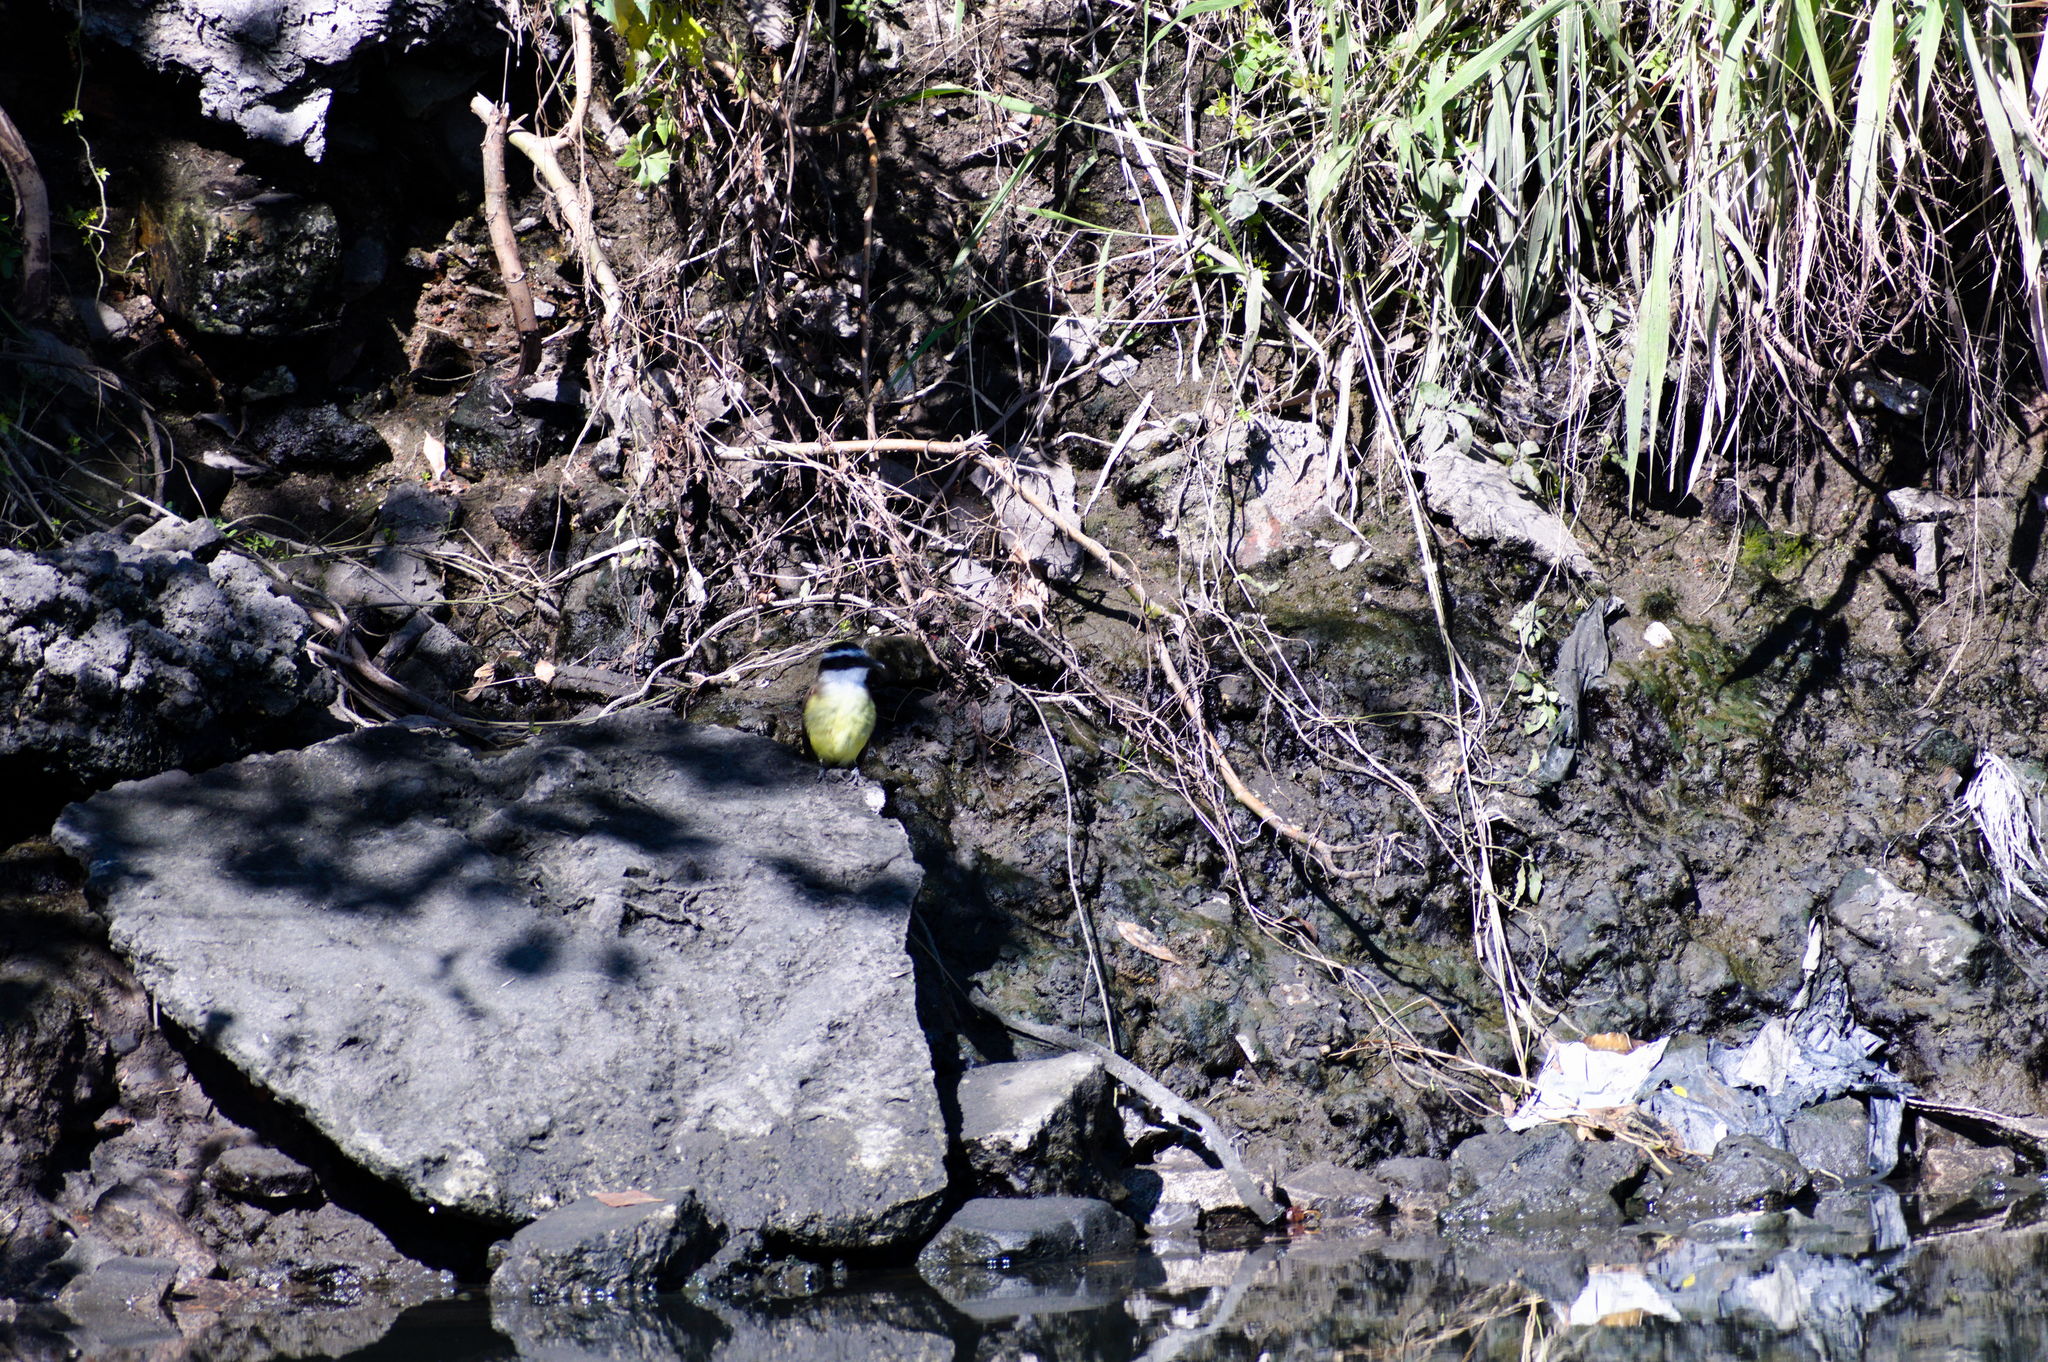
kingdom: Animalia
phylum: Chordata
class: Aves
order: Passeriformes
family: Tyrannidae
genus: Pitangus
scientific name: Pitangus sulphuratus
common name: Great kiskadee
